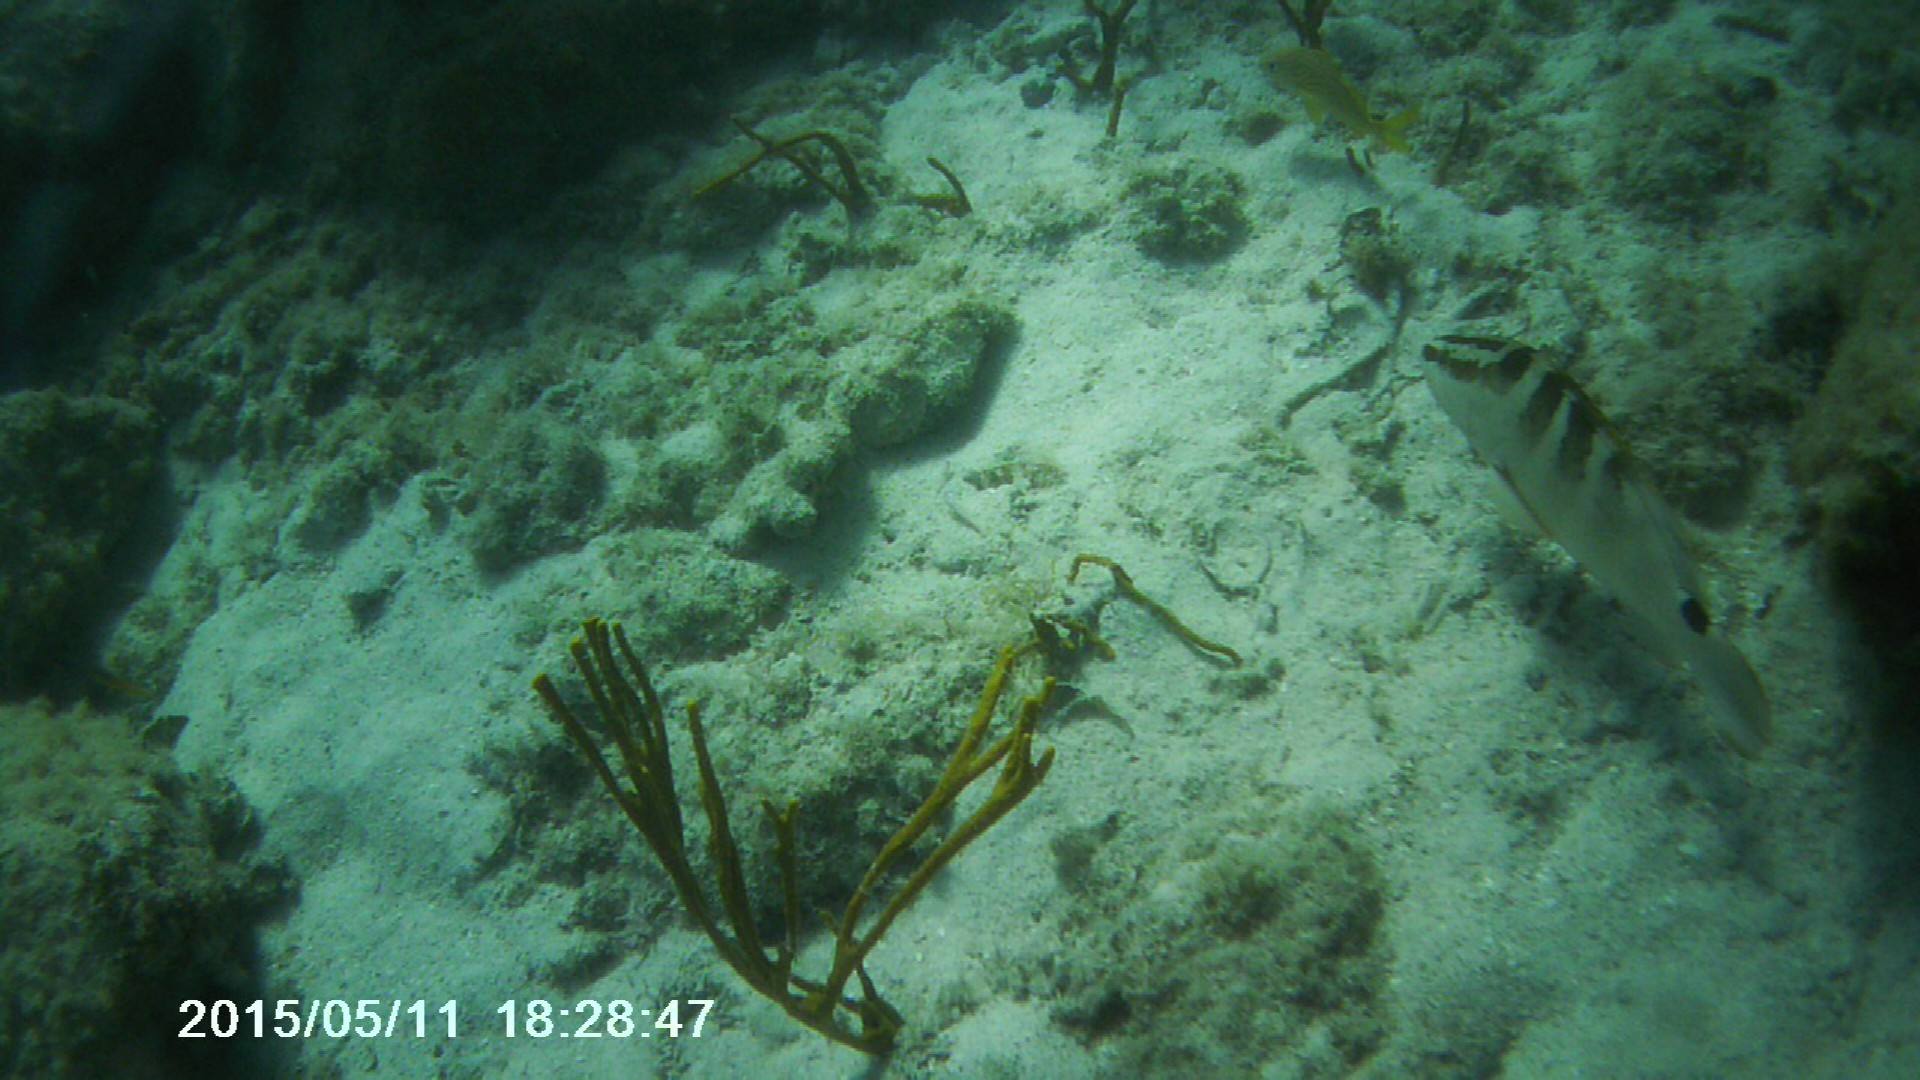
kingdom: Animalia
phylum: Chordata
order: Perciformes
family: Serranidae
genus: Epinephelus
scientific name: Epinephelus striatus
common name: Nassau grouper
